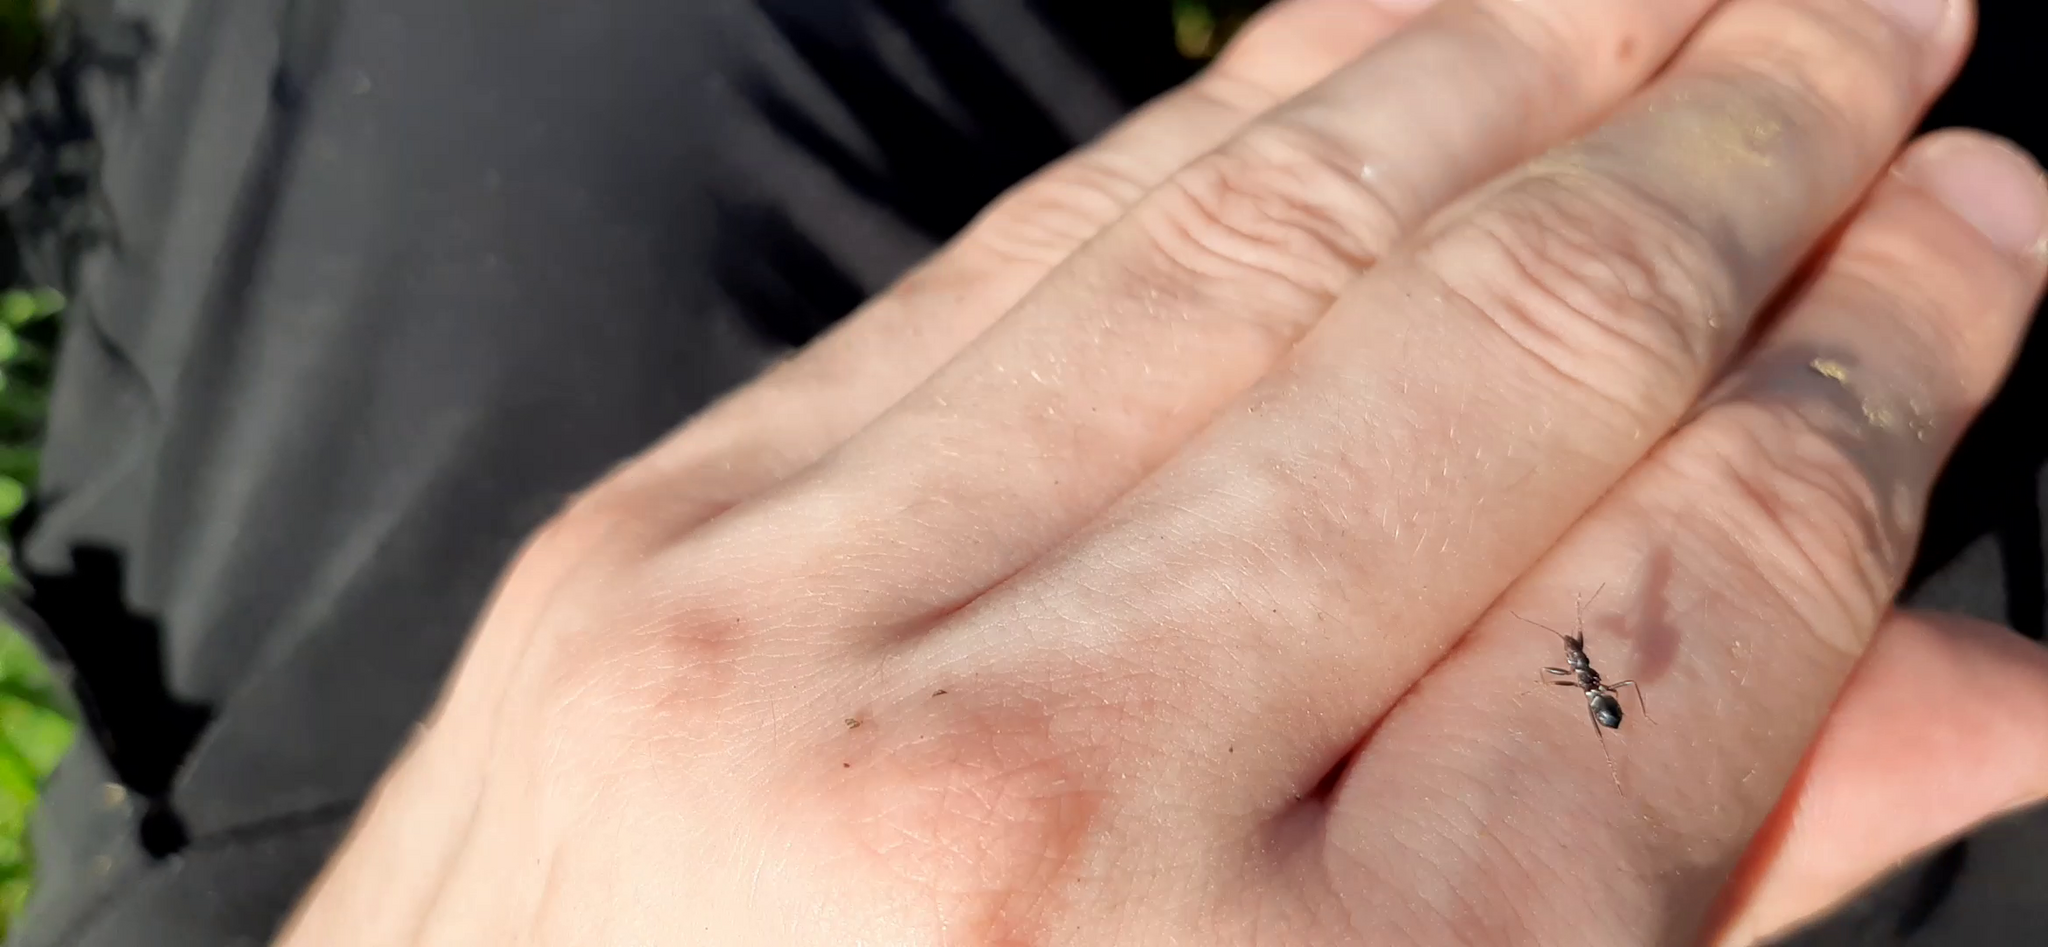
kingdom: Animalia
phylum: Arthropoda
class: Insecta
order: Hemiptera
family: Nabidae
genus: Himacerus
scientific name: Himacerus mirmicoides
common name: Ant damsel bug
